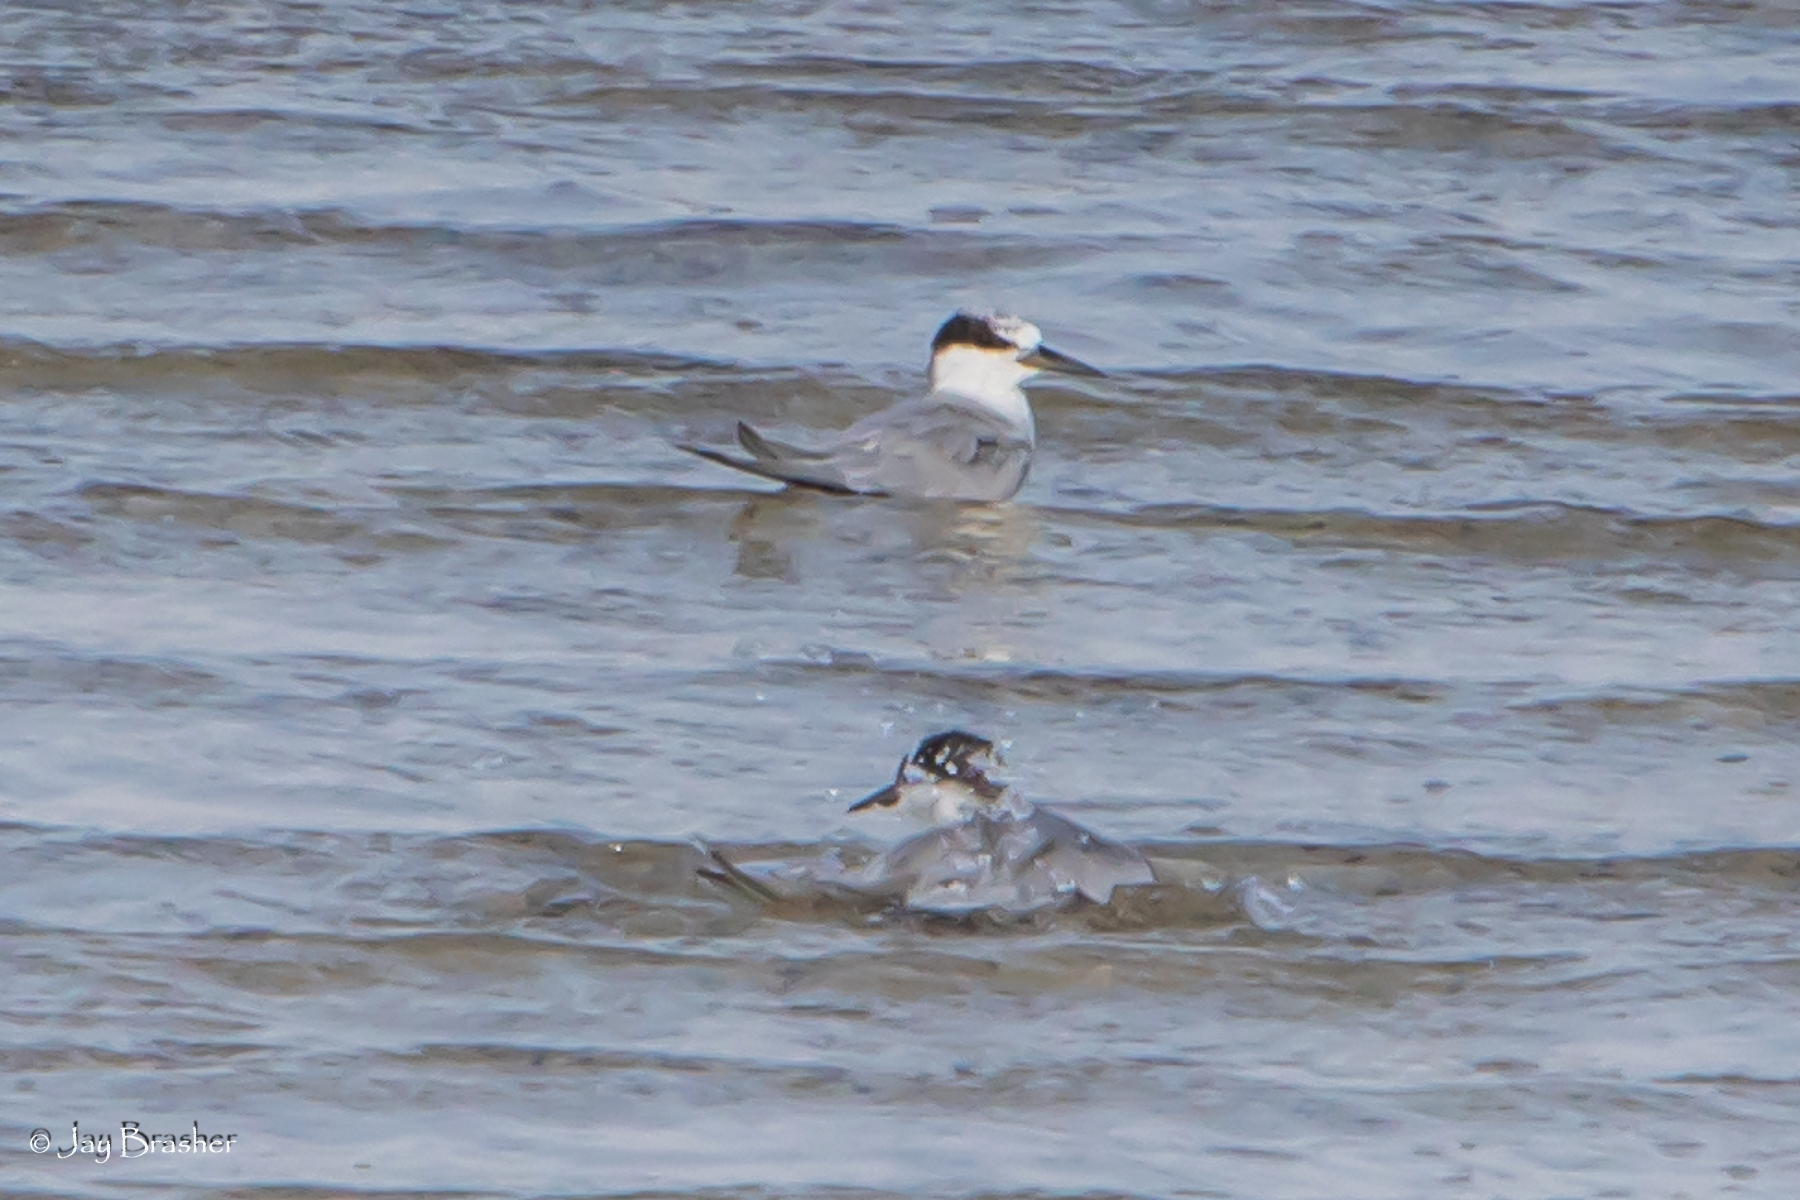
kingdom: Animalia
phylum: Chordata
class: Aves
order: Charadriiformes
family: Laridae
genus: Thalasseus
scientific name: Thalasseus acuflavidus
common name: Cabot's tern
